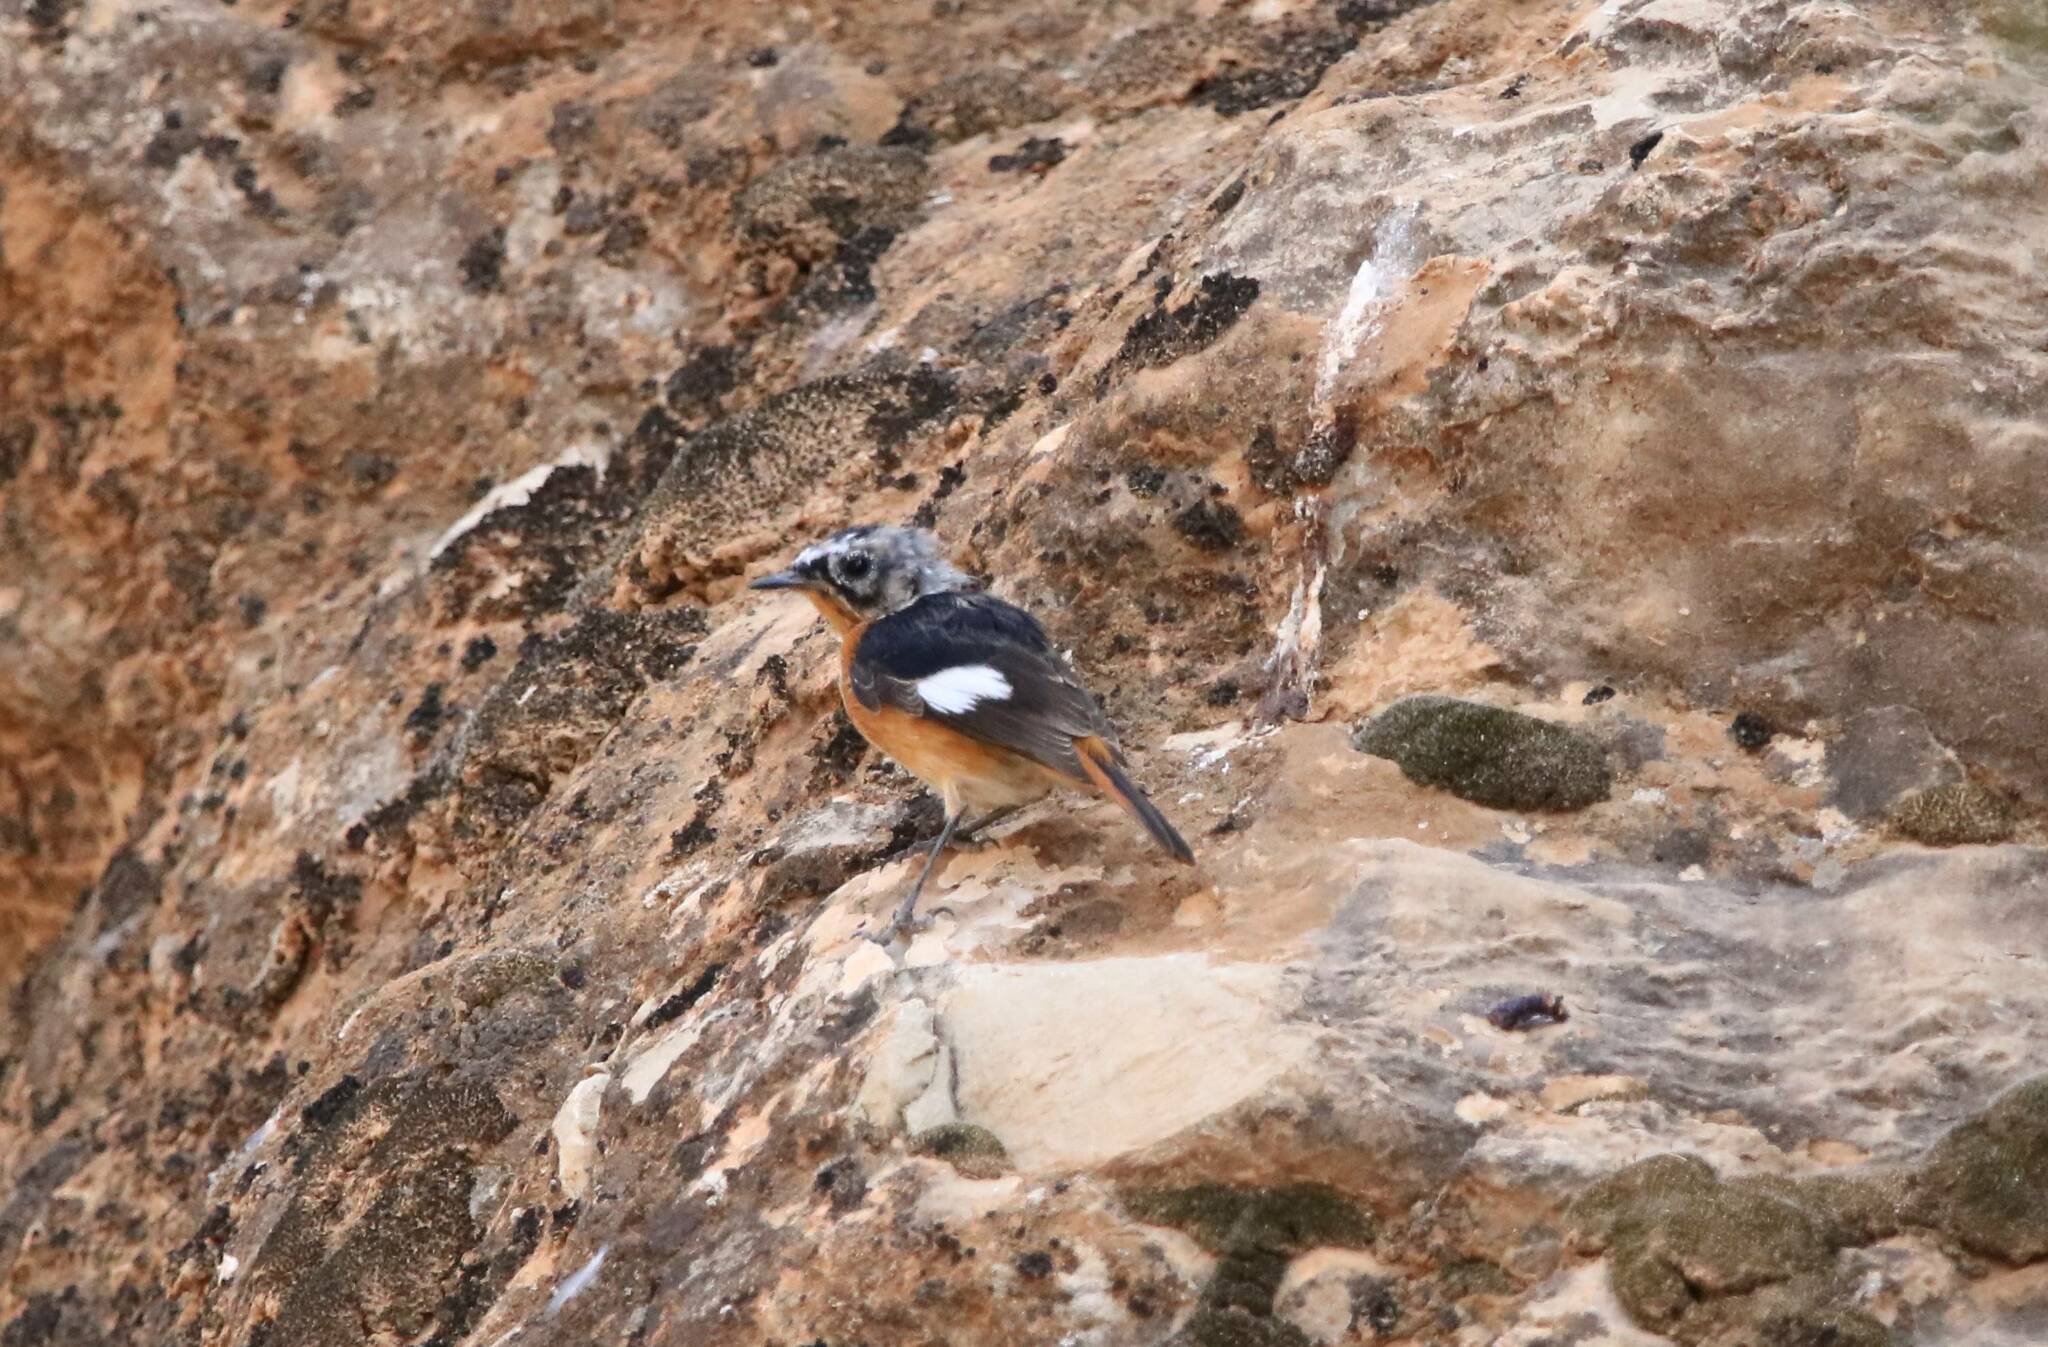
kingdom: Animalia
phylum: Chordata
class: Aves
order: Passeriformes
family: Muscicapidae
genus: Phoenicurus
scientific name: Phoenicurus moussieri
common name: Moussier's redstart
